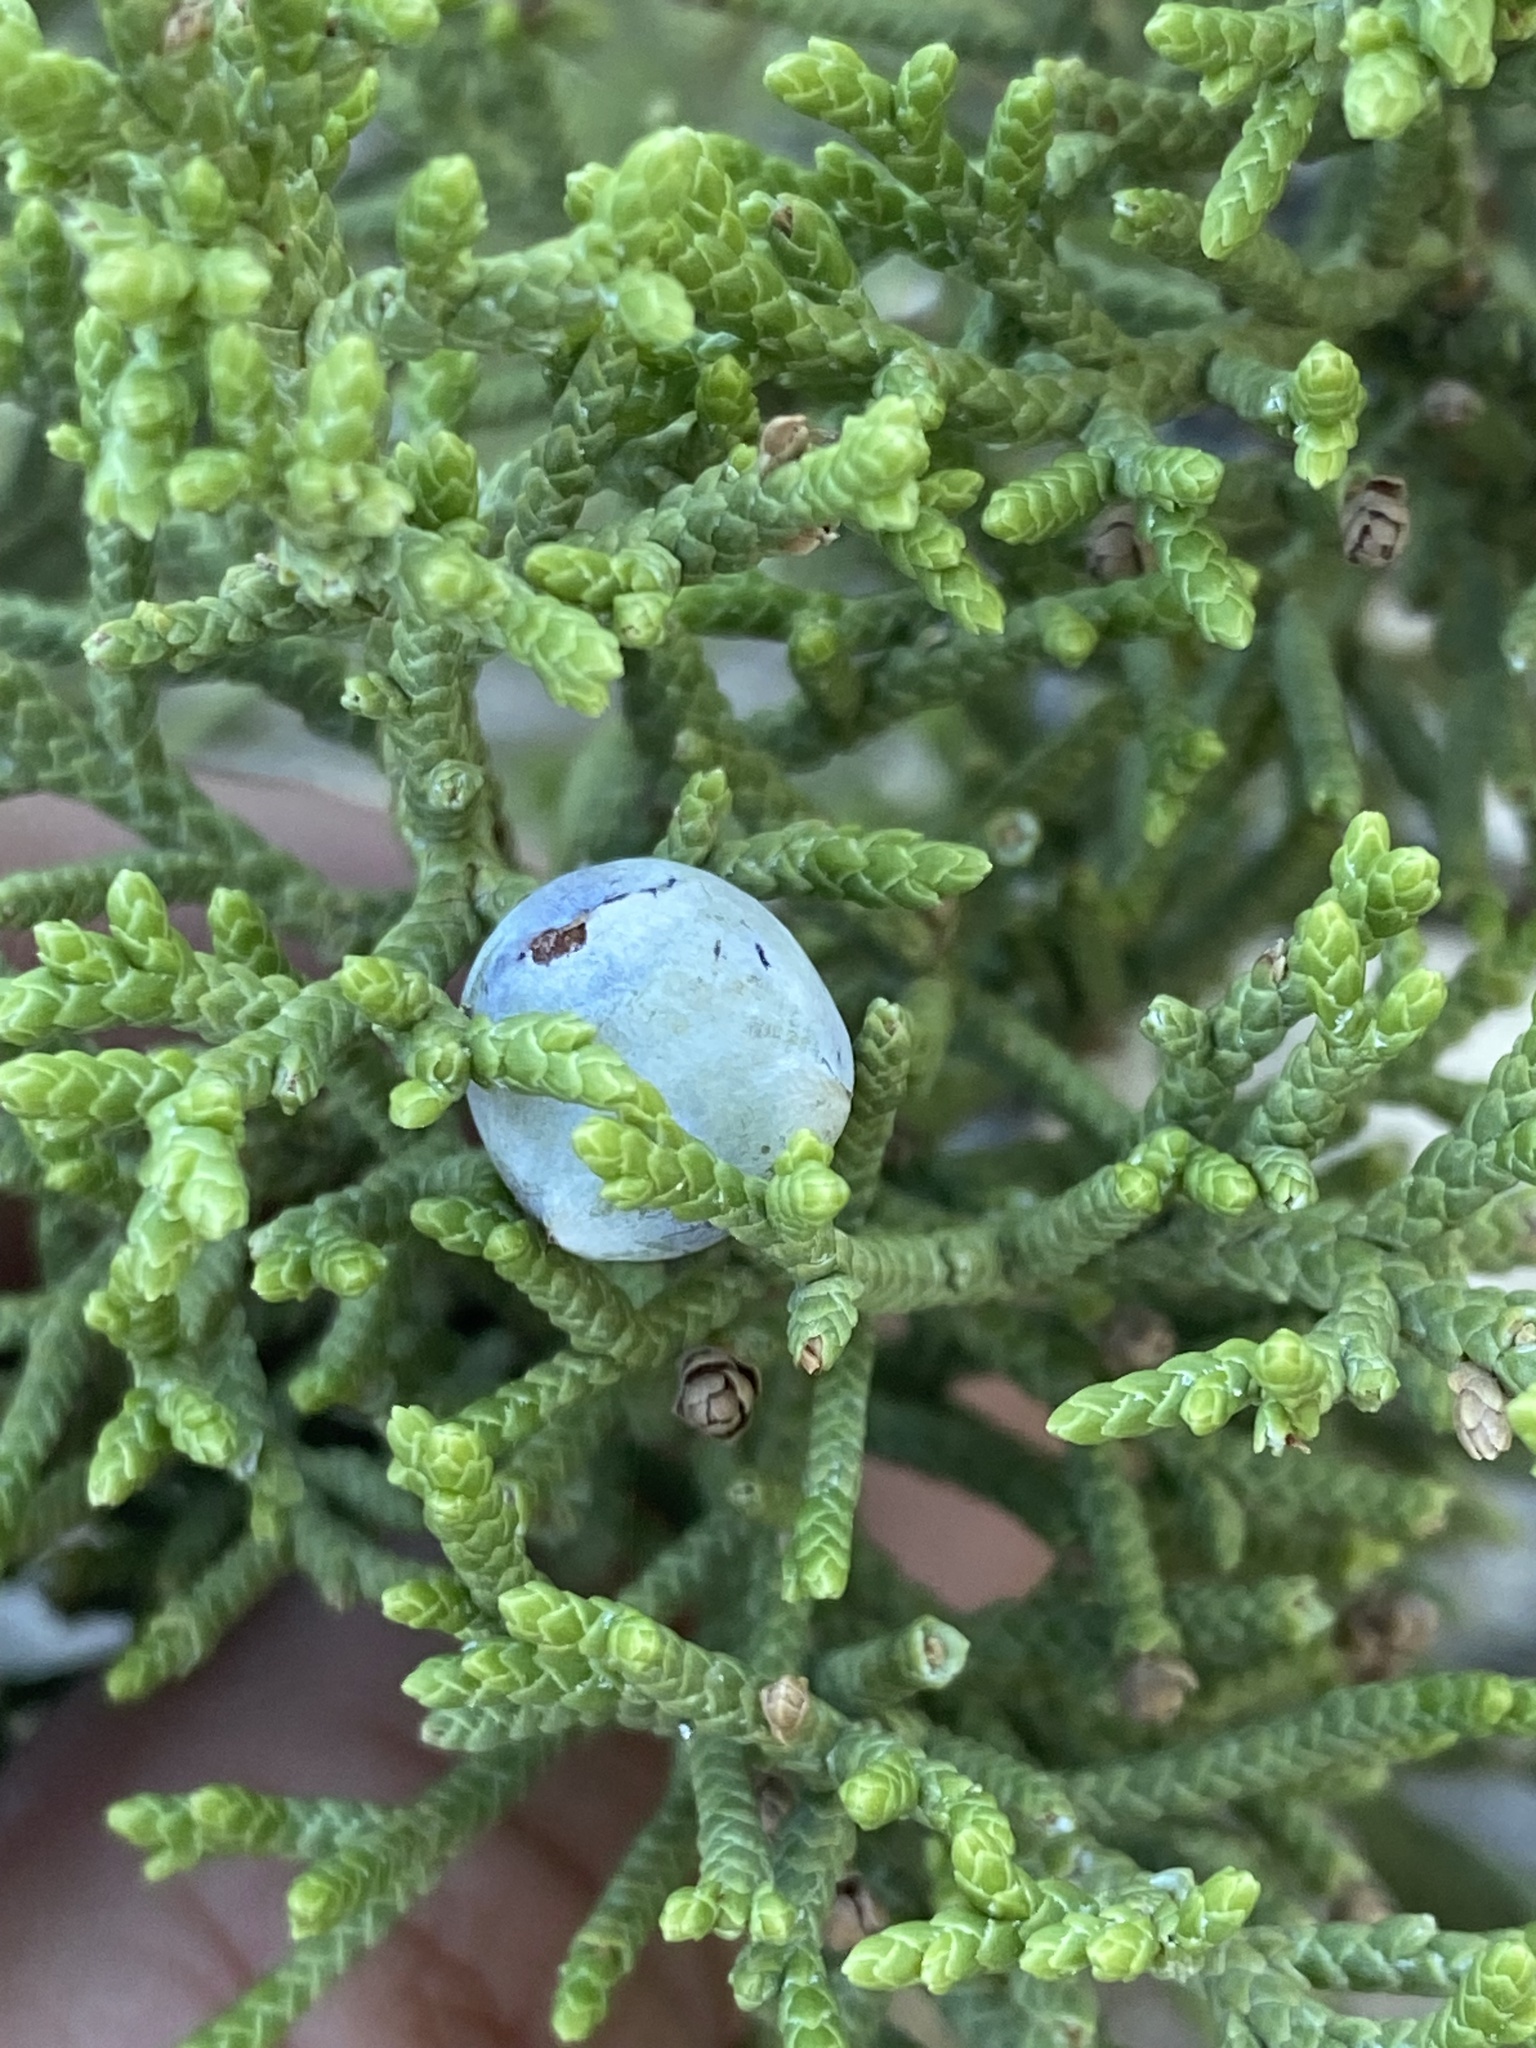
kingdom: Plantae
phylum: Tracheophyta
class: Pinopsida
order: Pinales
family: Cupressaceae
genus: Juniperus
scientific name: Juniperus osteosperma
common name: Utah juniper
